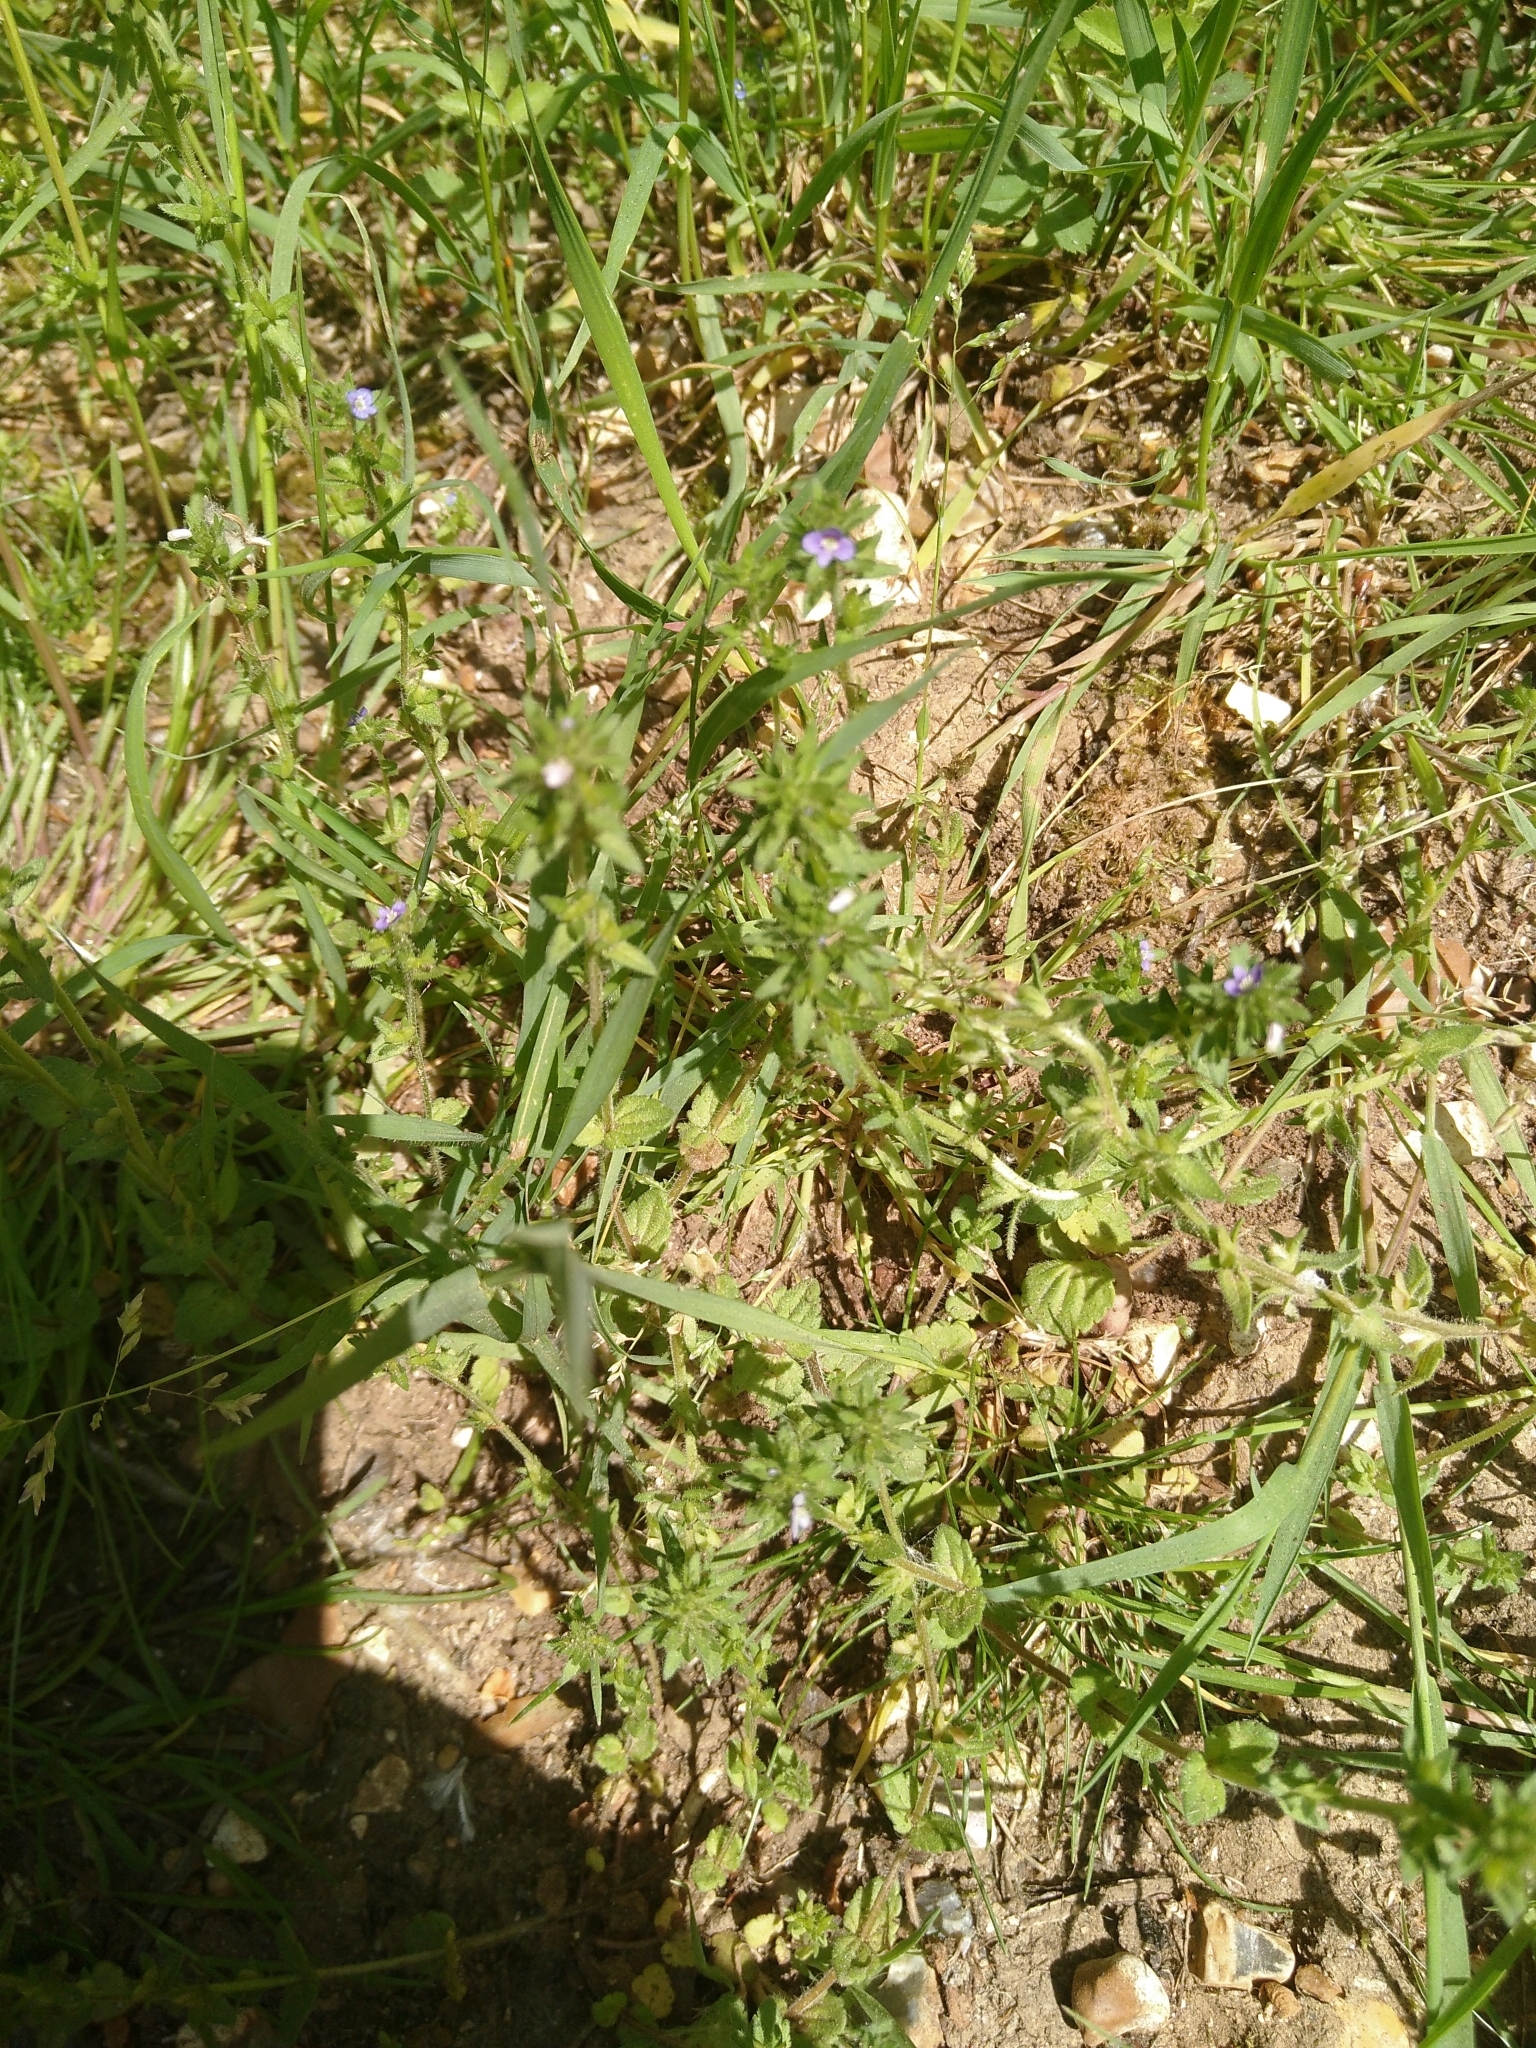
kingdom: Plantae
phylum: Tracheophyta
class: Magnoliopsida
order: Lamiales
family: Plantaginaceae
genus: Veronica
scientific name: Veronica arvensis
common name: Corn speedwell
